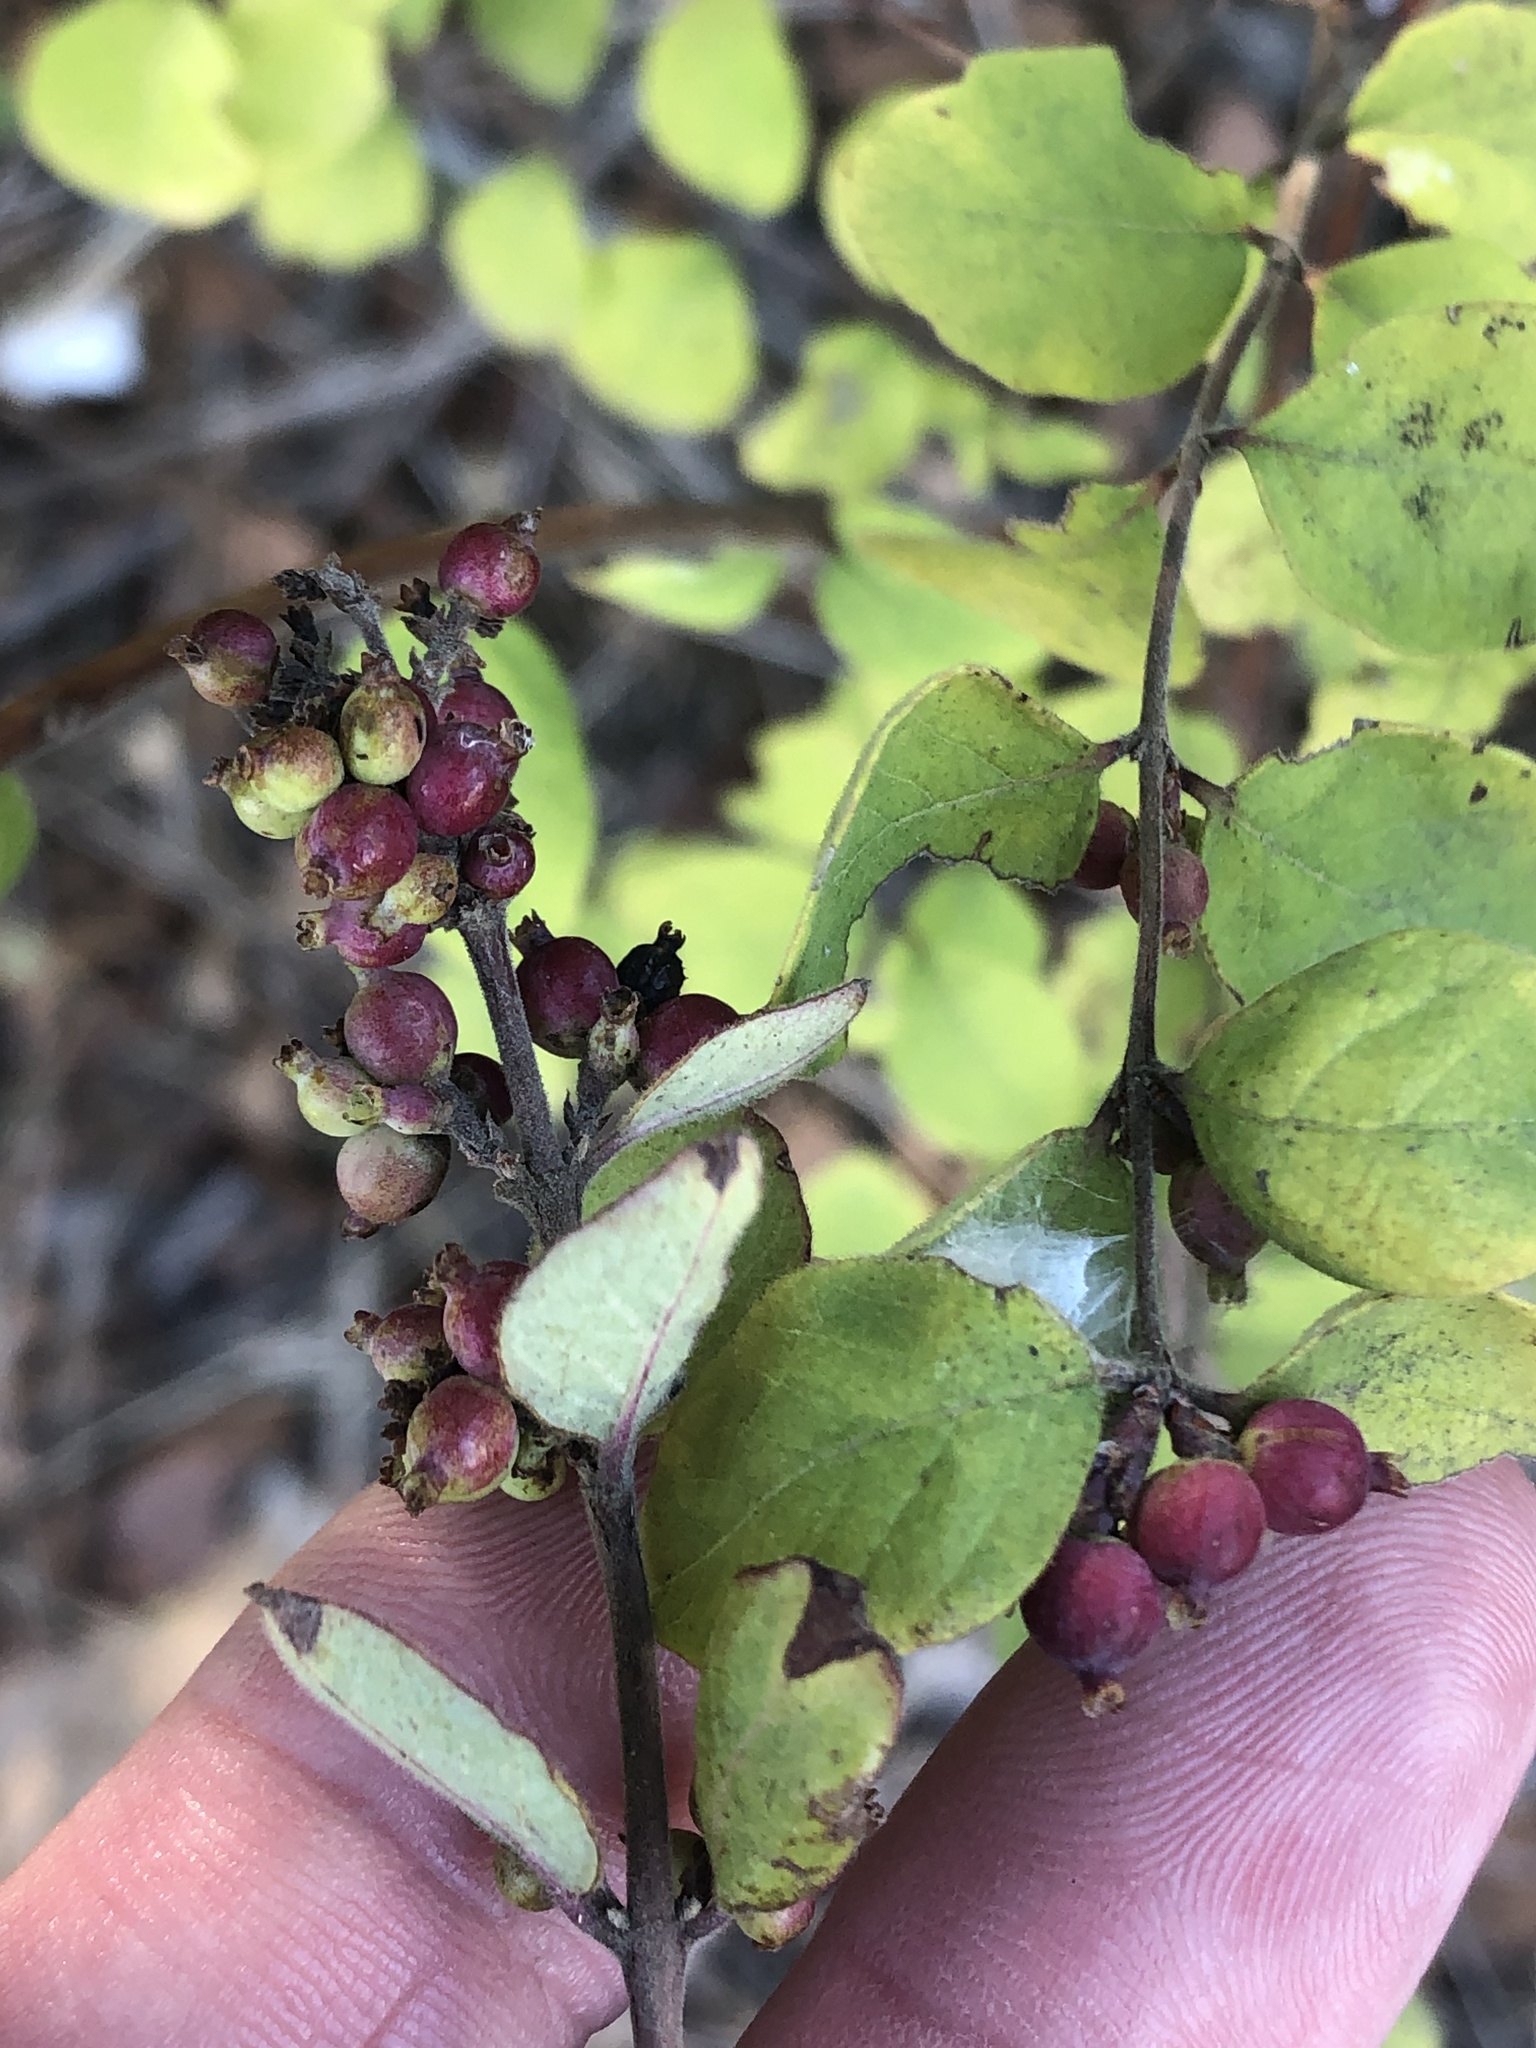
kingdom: Plantae
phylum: Tracheophyta
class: Magnoliopsida
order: Dipsacales
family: Caprifoliaceae
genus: Symphoricarpos
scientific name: Symphoricarpos orbiculatus
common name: Coralberry
